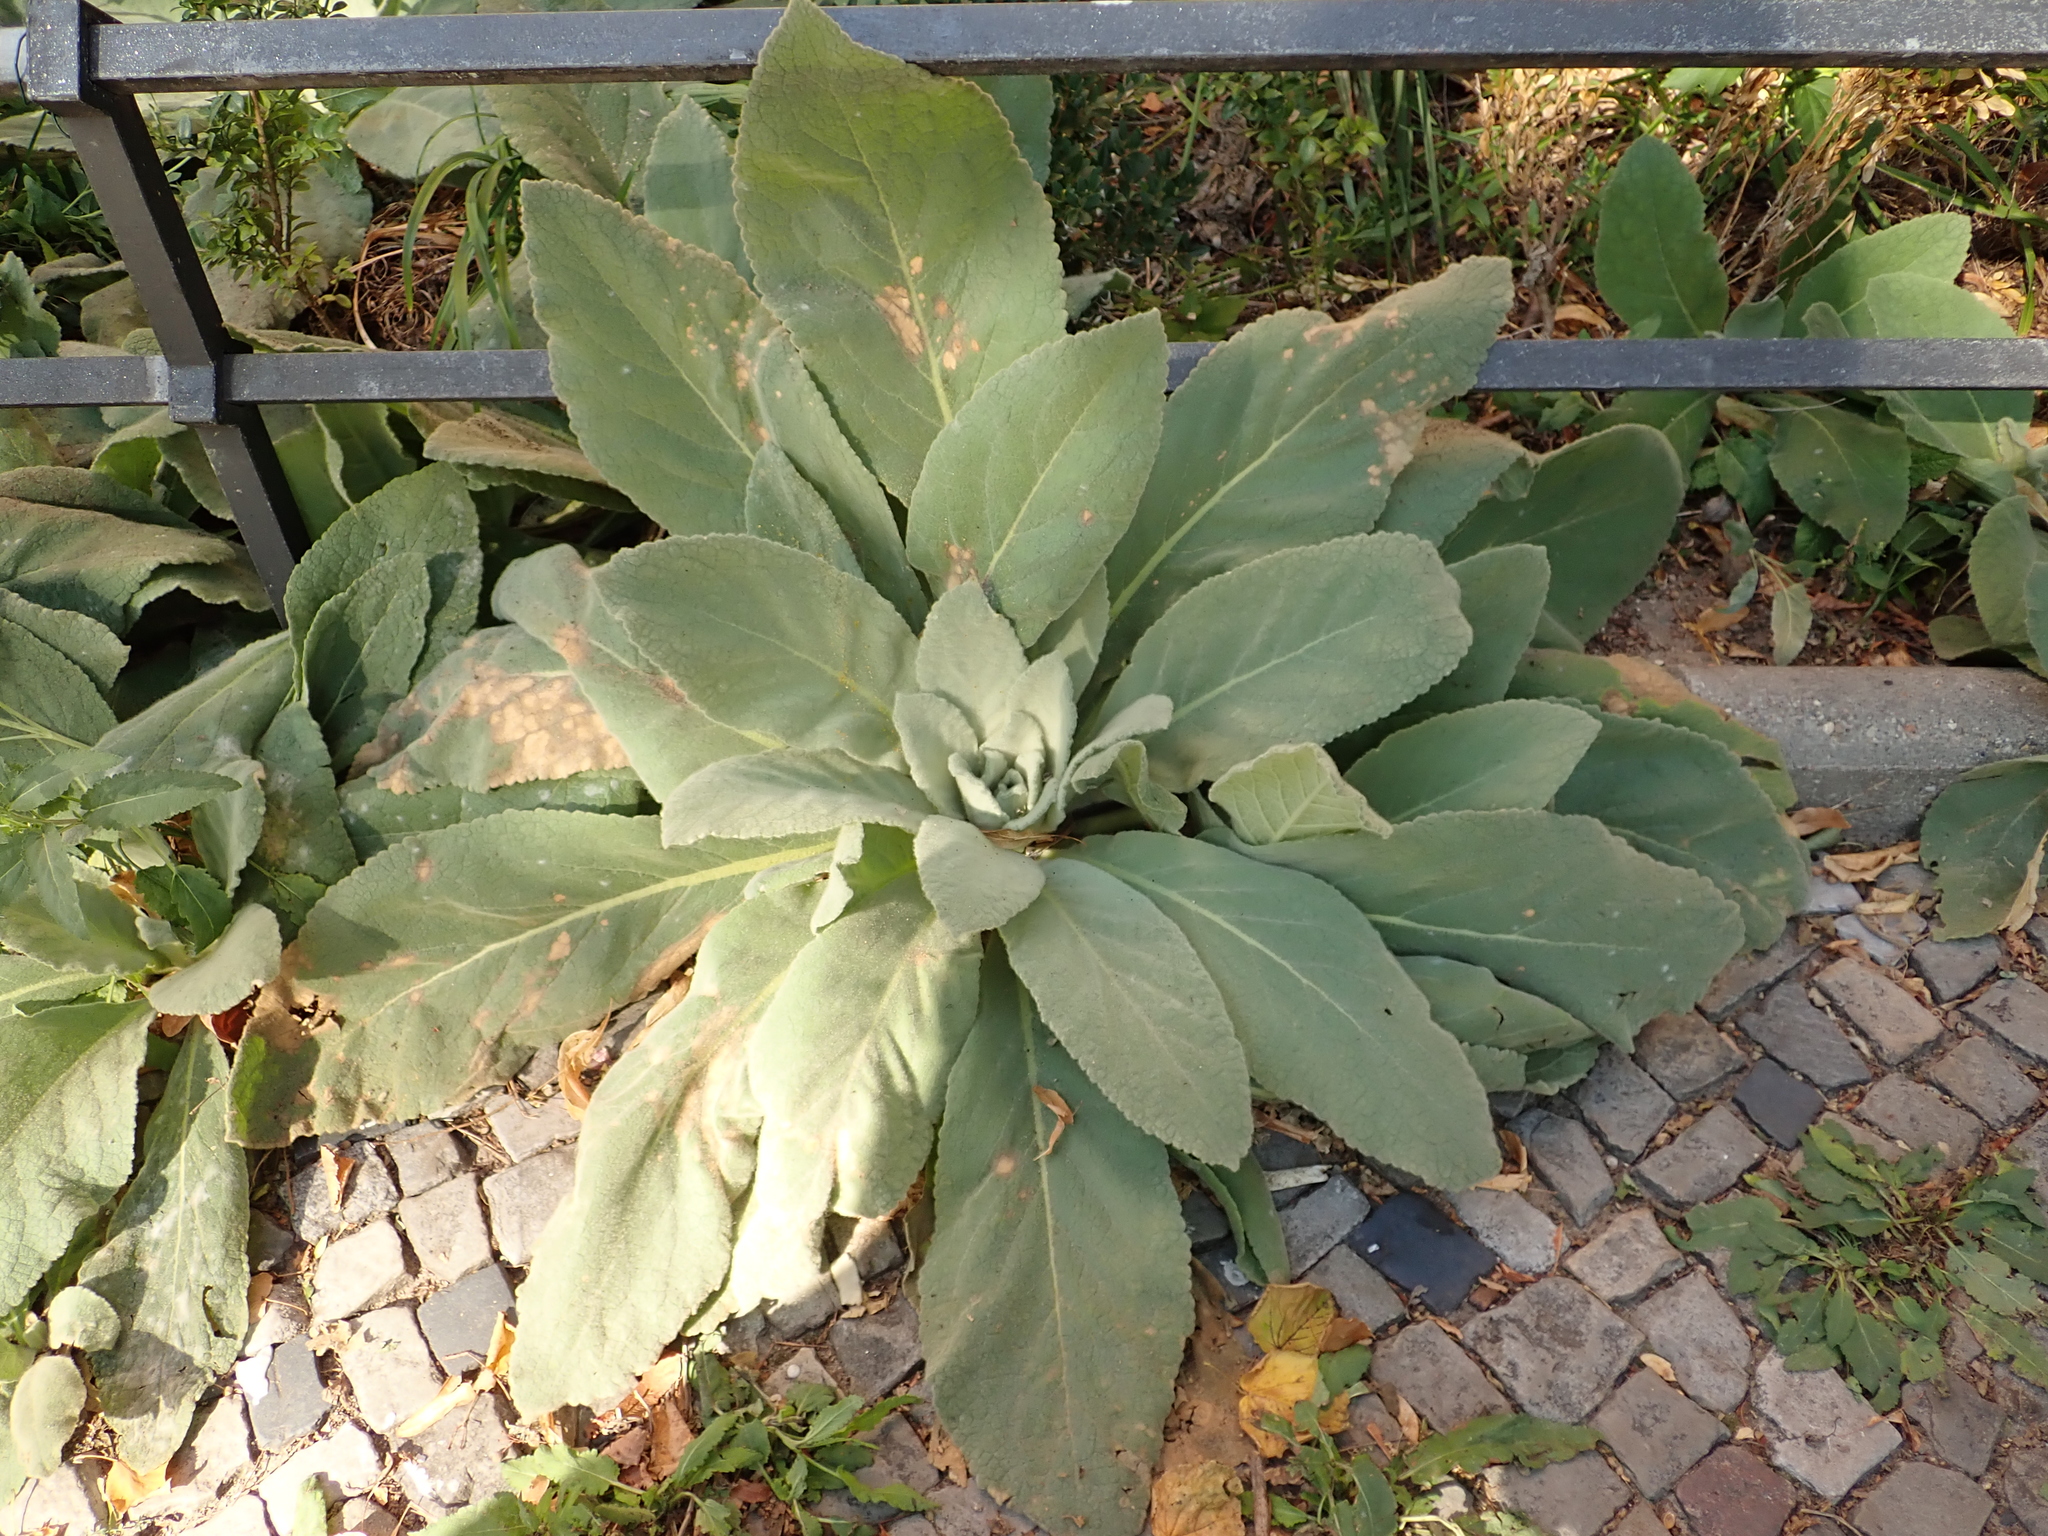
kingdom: Plantae
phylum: Tracheophyta
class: Magnoliopsida
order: Lamiales
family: Scrophulariaceae
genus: Verbascum
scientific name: Verbascum thapsus
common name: Common mullein
